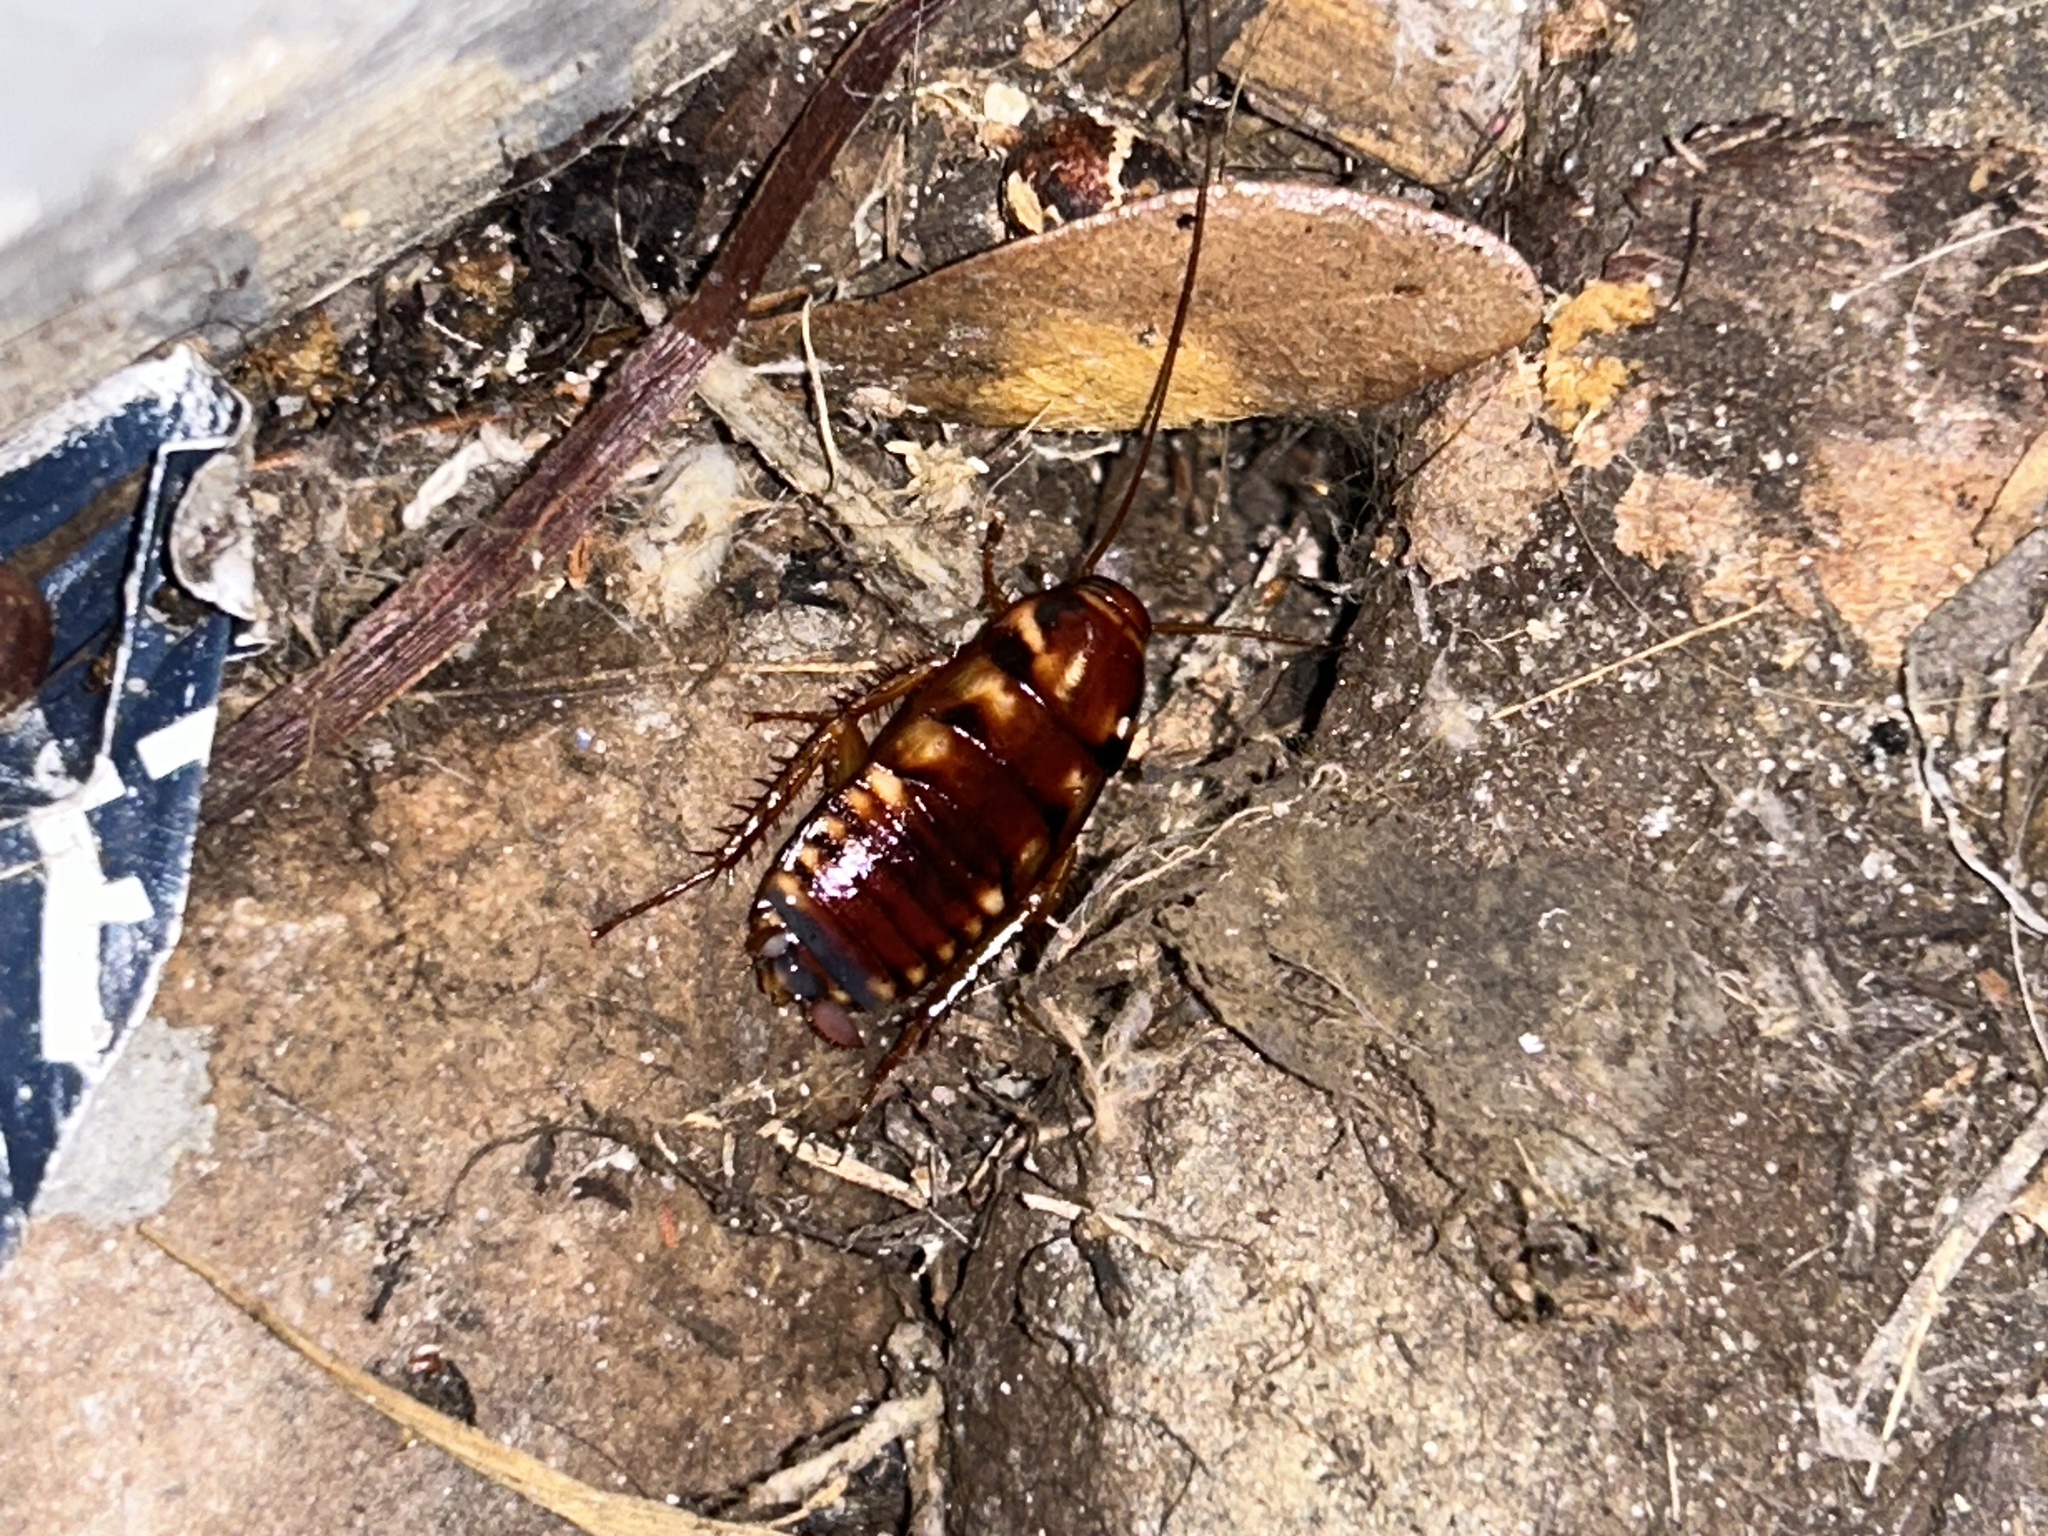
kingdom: Animalia
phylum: Arthropoda
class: Insecta
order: Blattodea
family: Blattidae
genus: Periplaneta
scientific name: Periplaneta australasiae
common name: Australian cockroach
